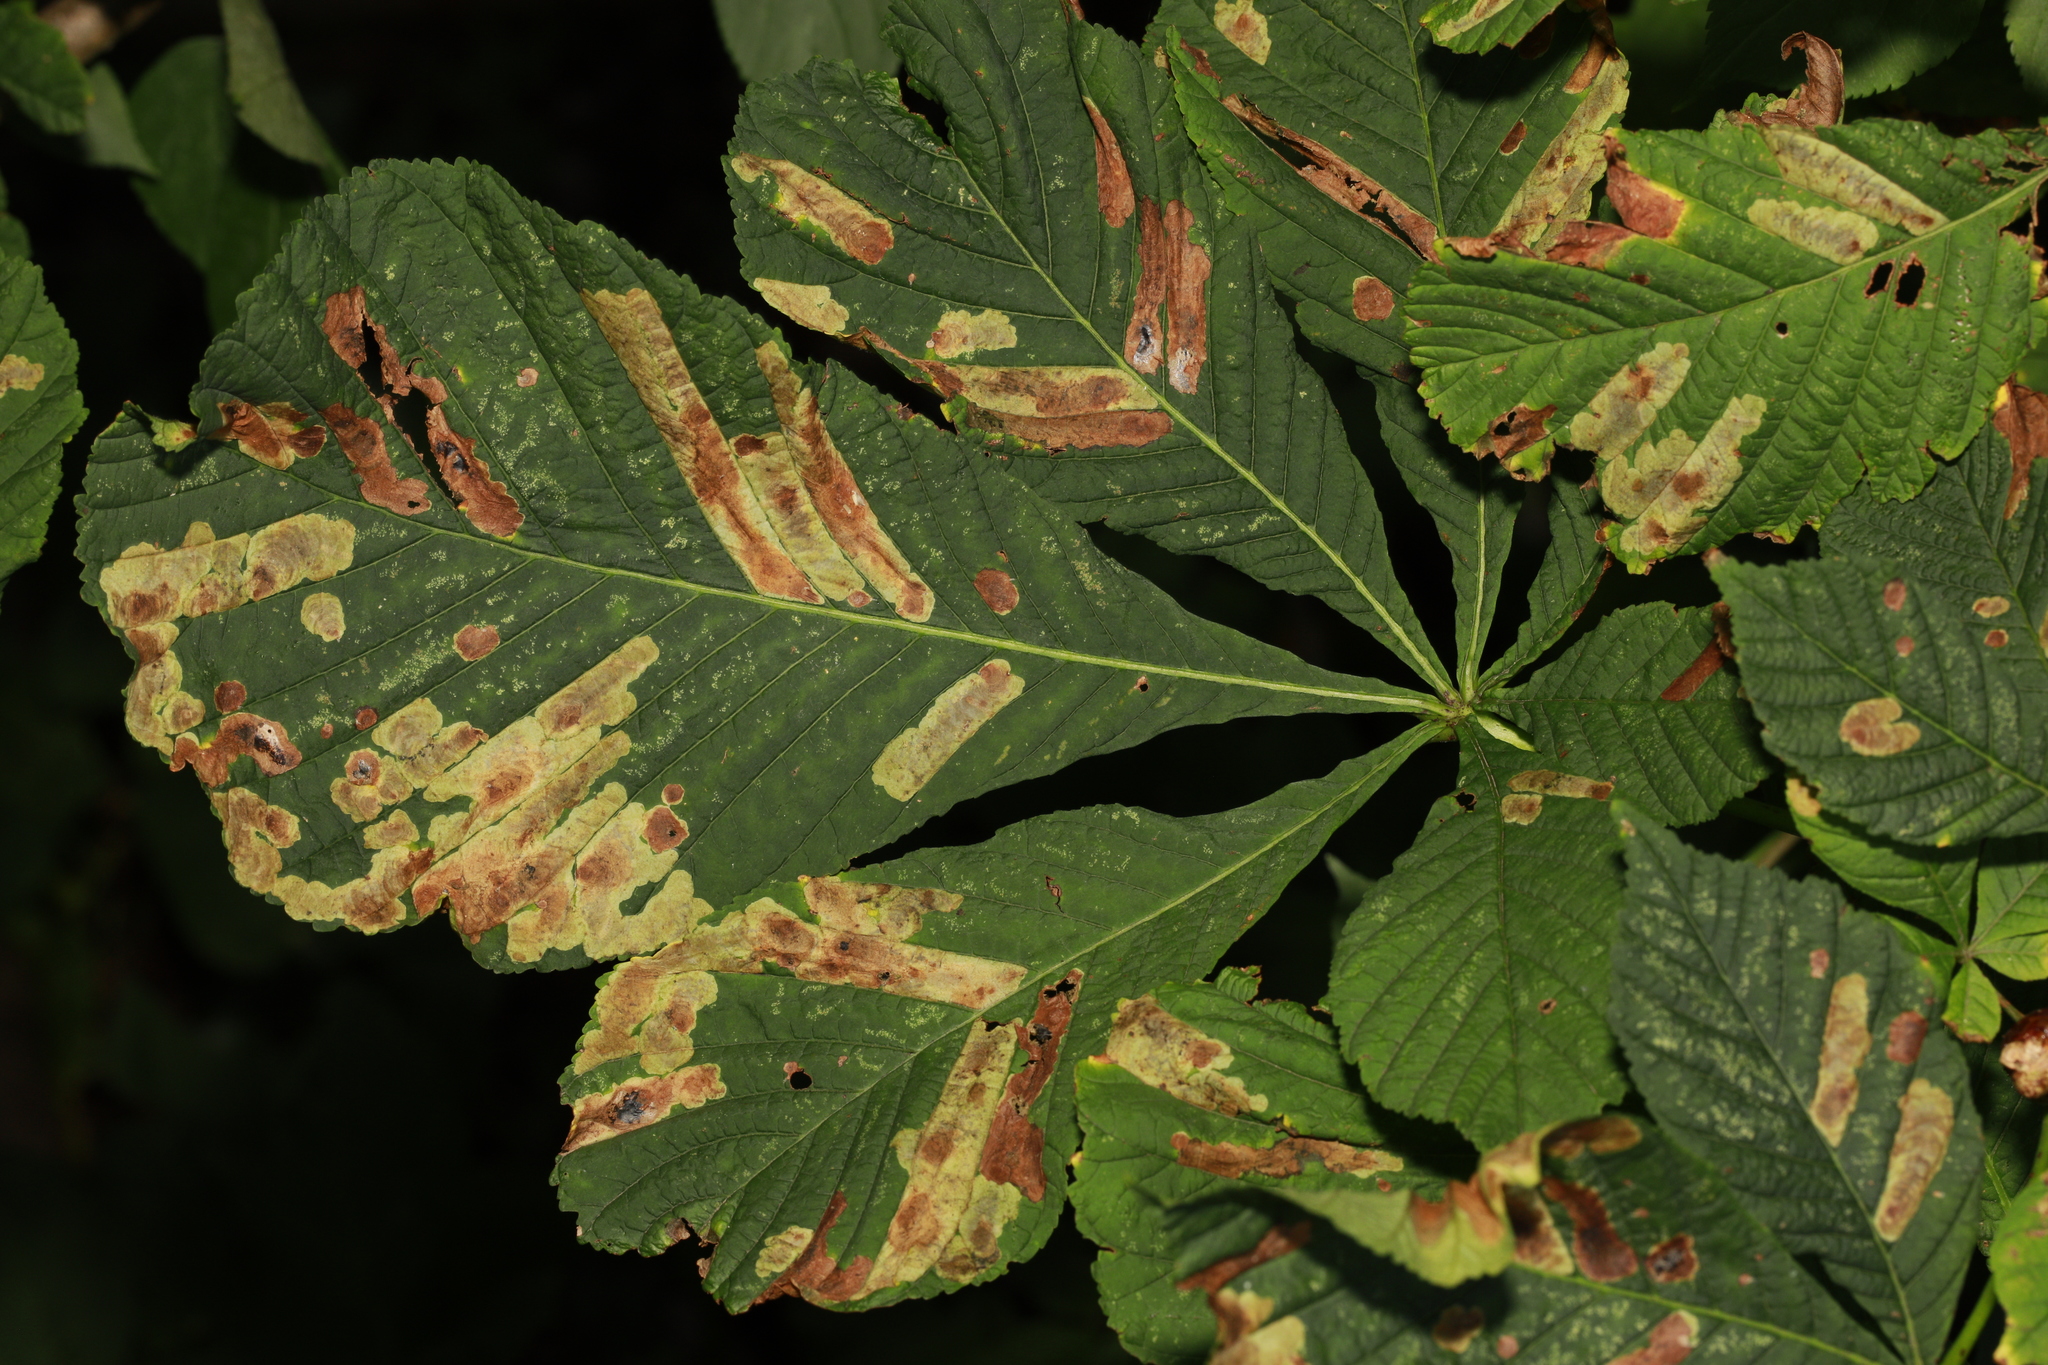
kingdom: Animalia
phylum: Arthropoda
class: Insecta
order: Lepidoptera
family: Gracillariidae
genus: Cameraria
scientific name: Cameraria ohridella
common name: Horse-chestnut leaf-miner
